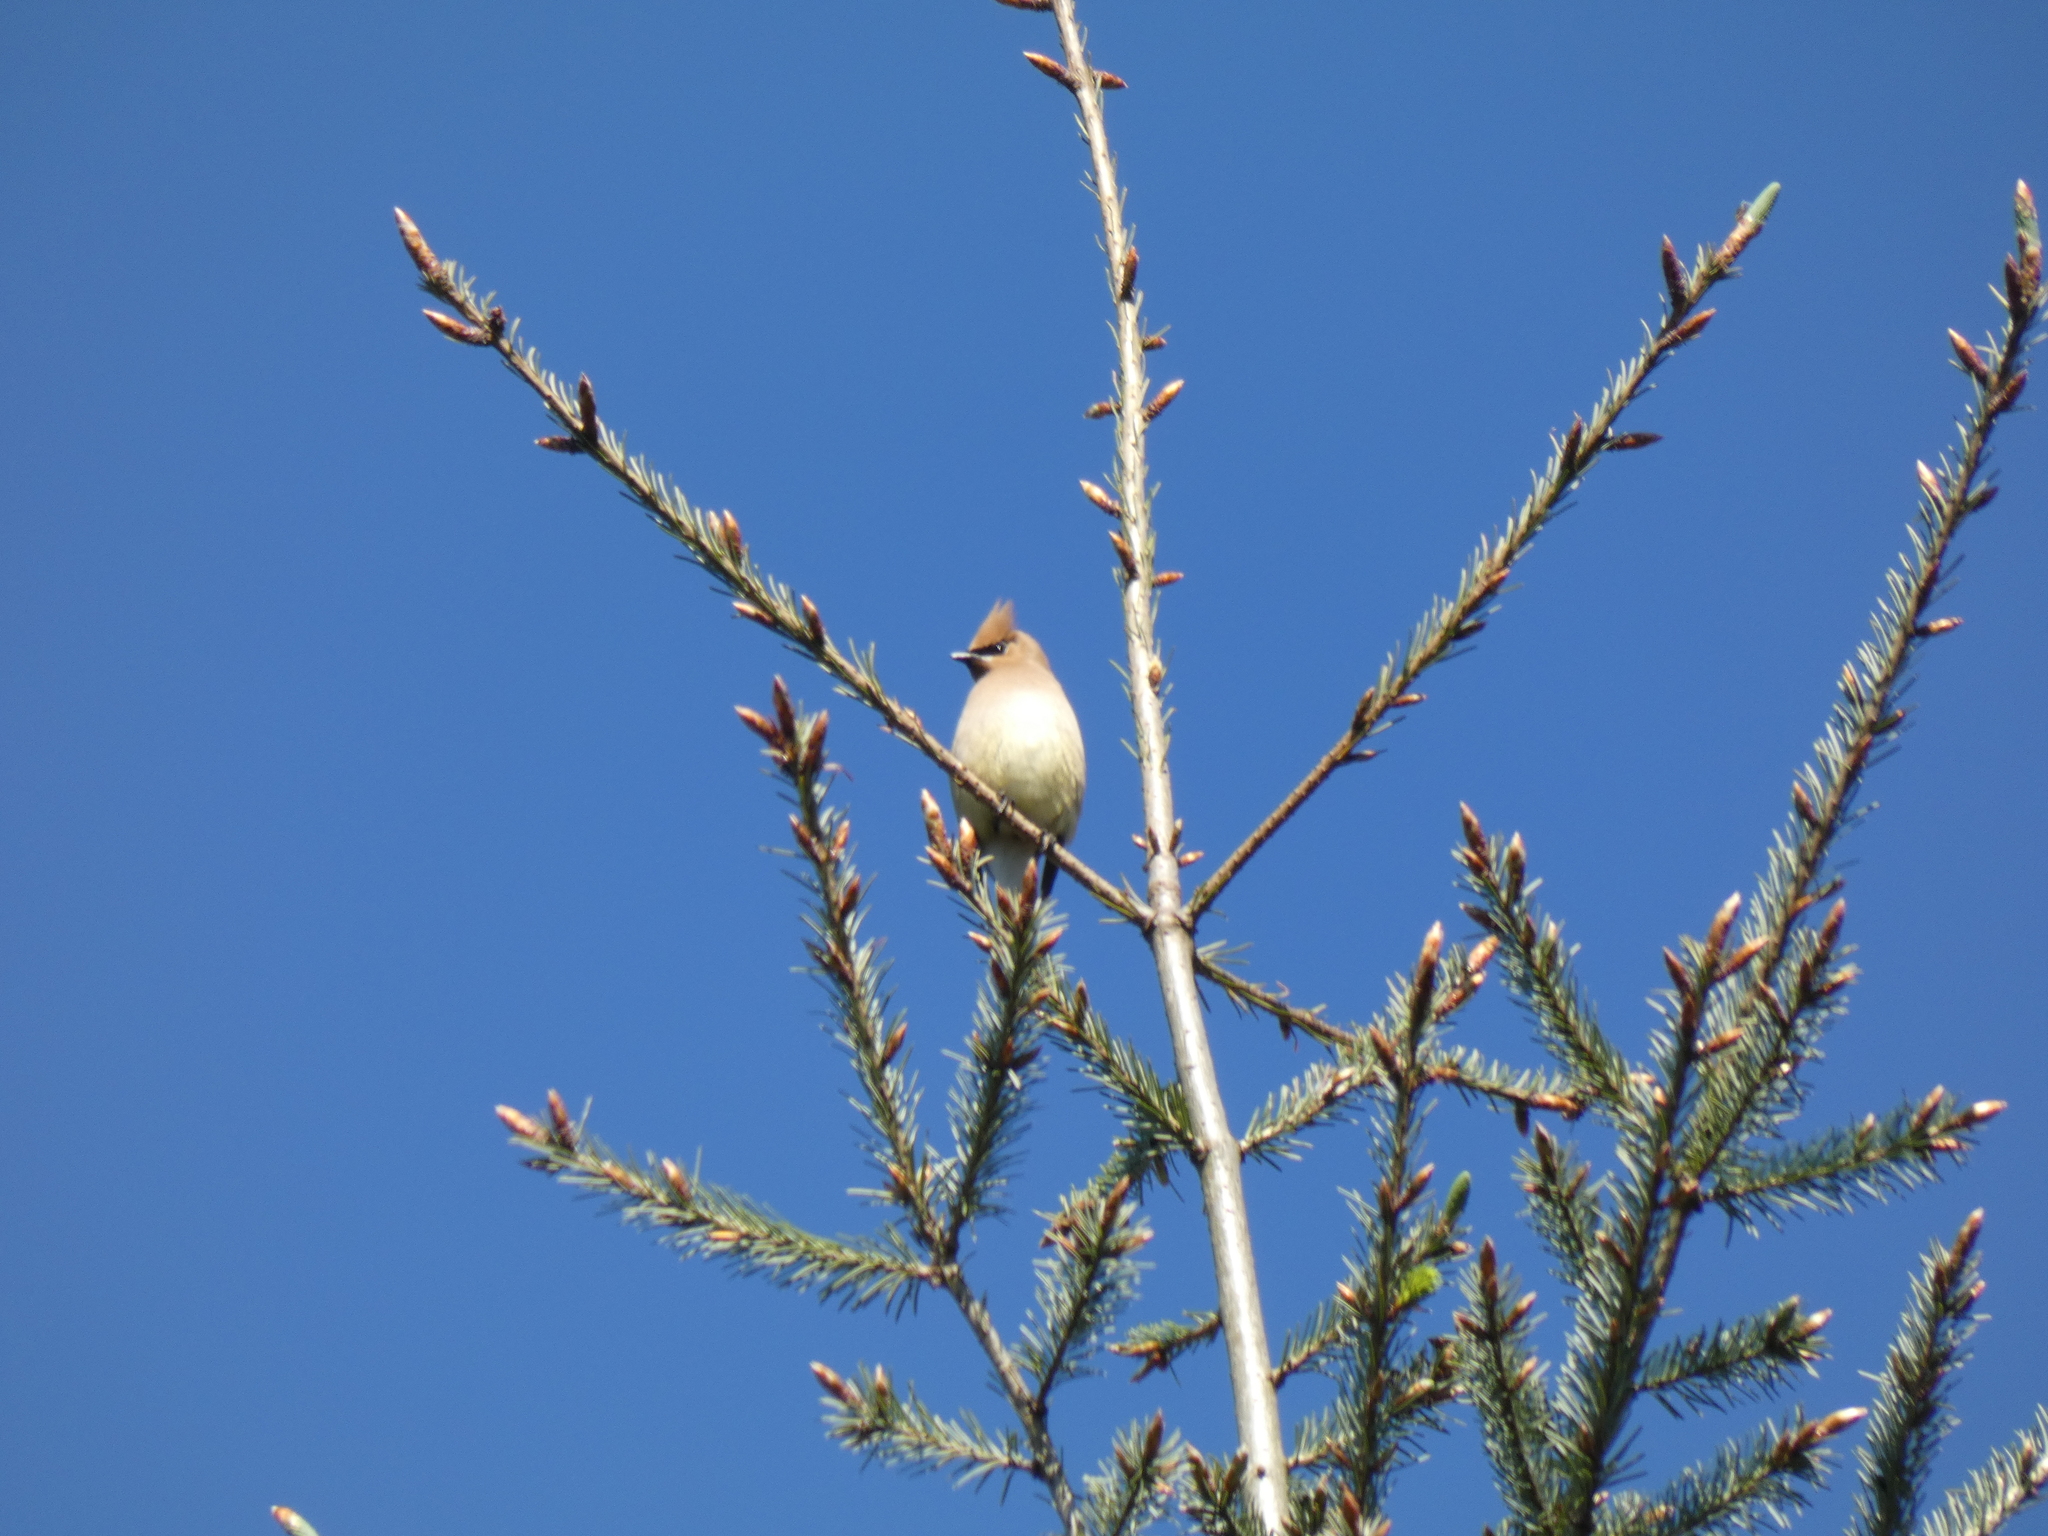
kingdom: Animalia
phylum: Chordata
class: Aves
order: Passeriformes
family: Bombycillidae
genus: Bombycilla
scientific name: Bombycilla cedrorum
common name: Cedar waxwing
